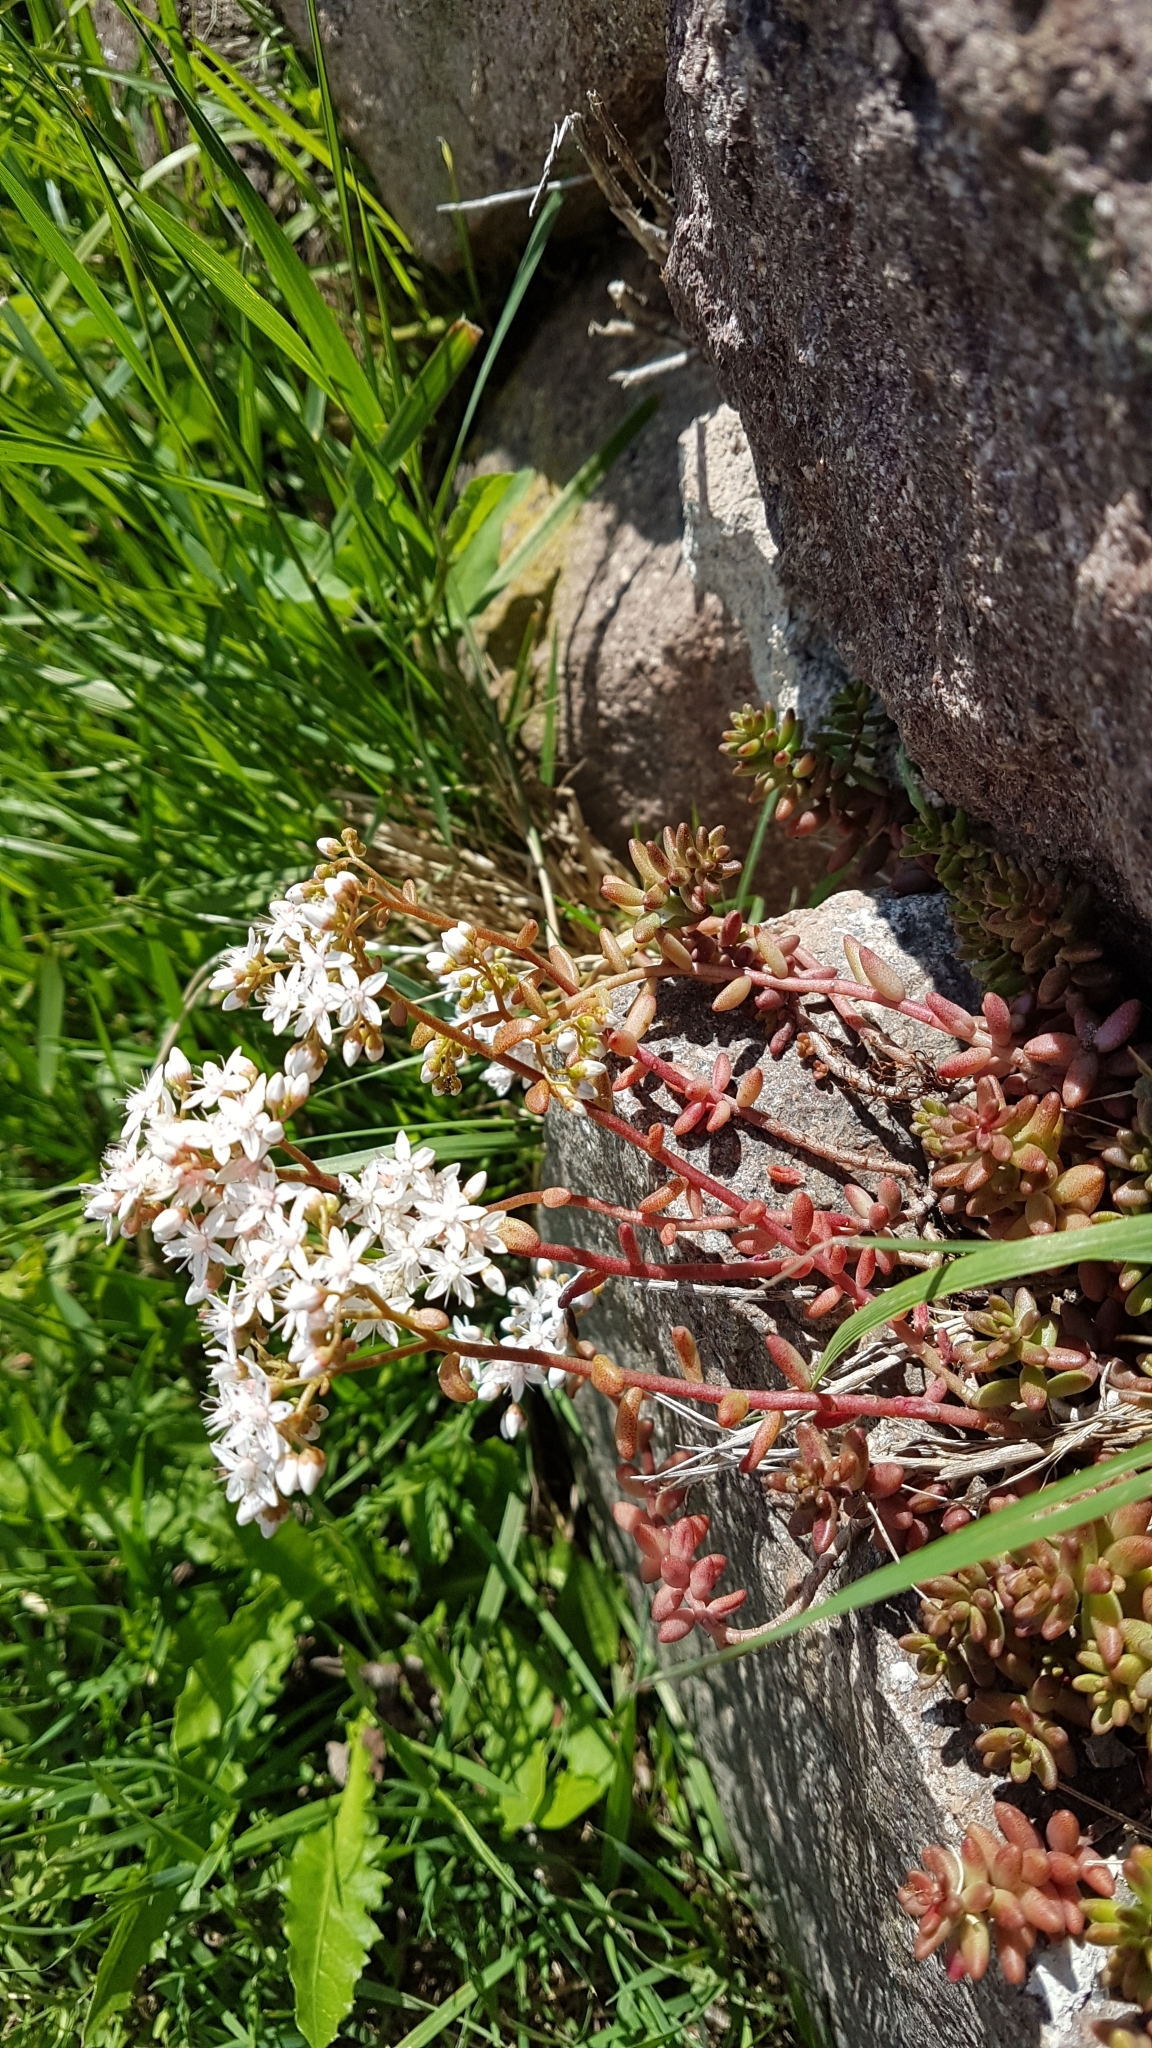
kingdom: Plantae
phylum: Tracheophyta
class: Magnoliopsida
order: Saxifragales
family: Crassulaceae
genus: Sedum
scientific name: Sedum album
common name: White stonecrop
